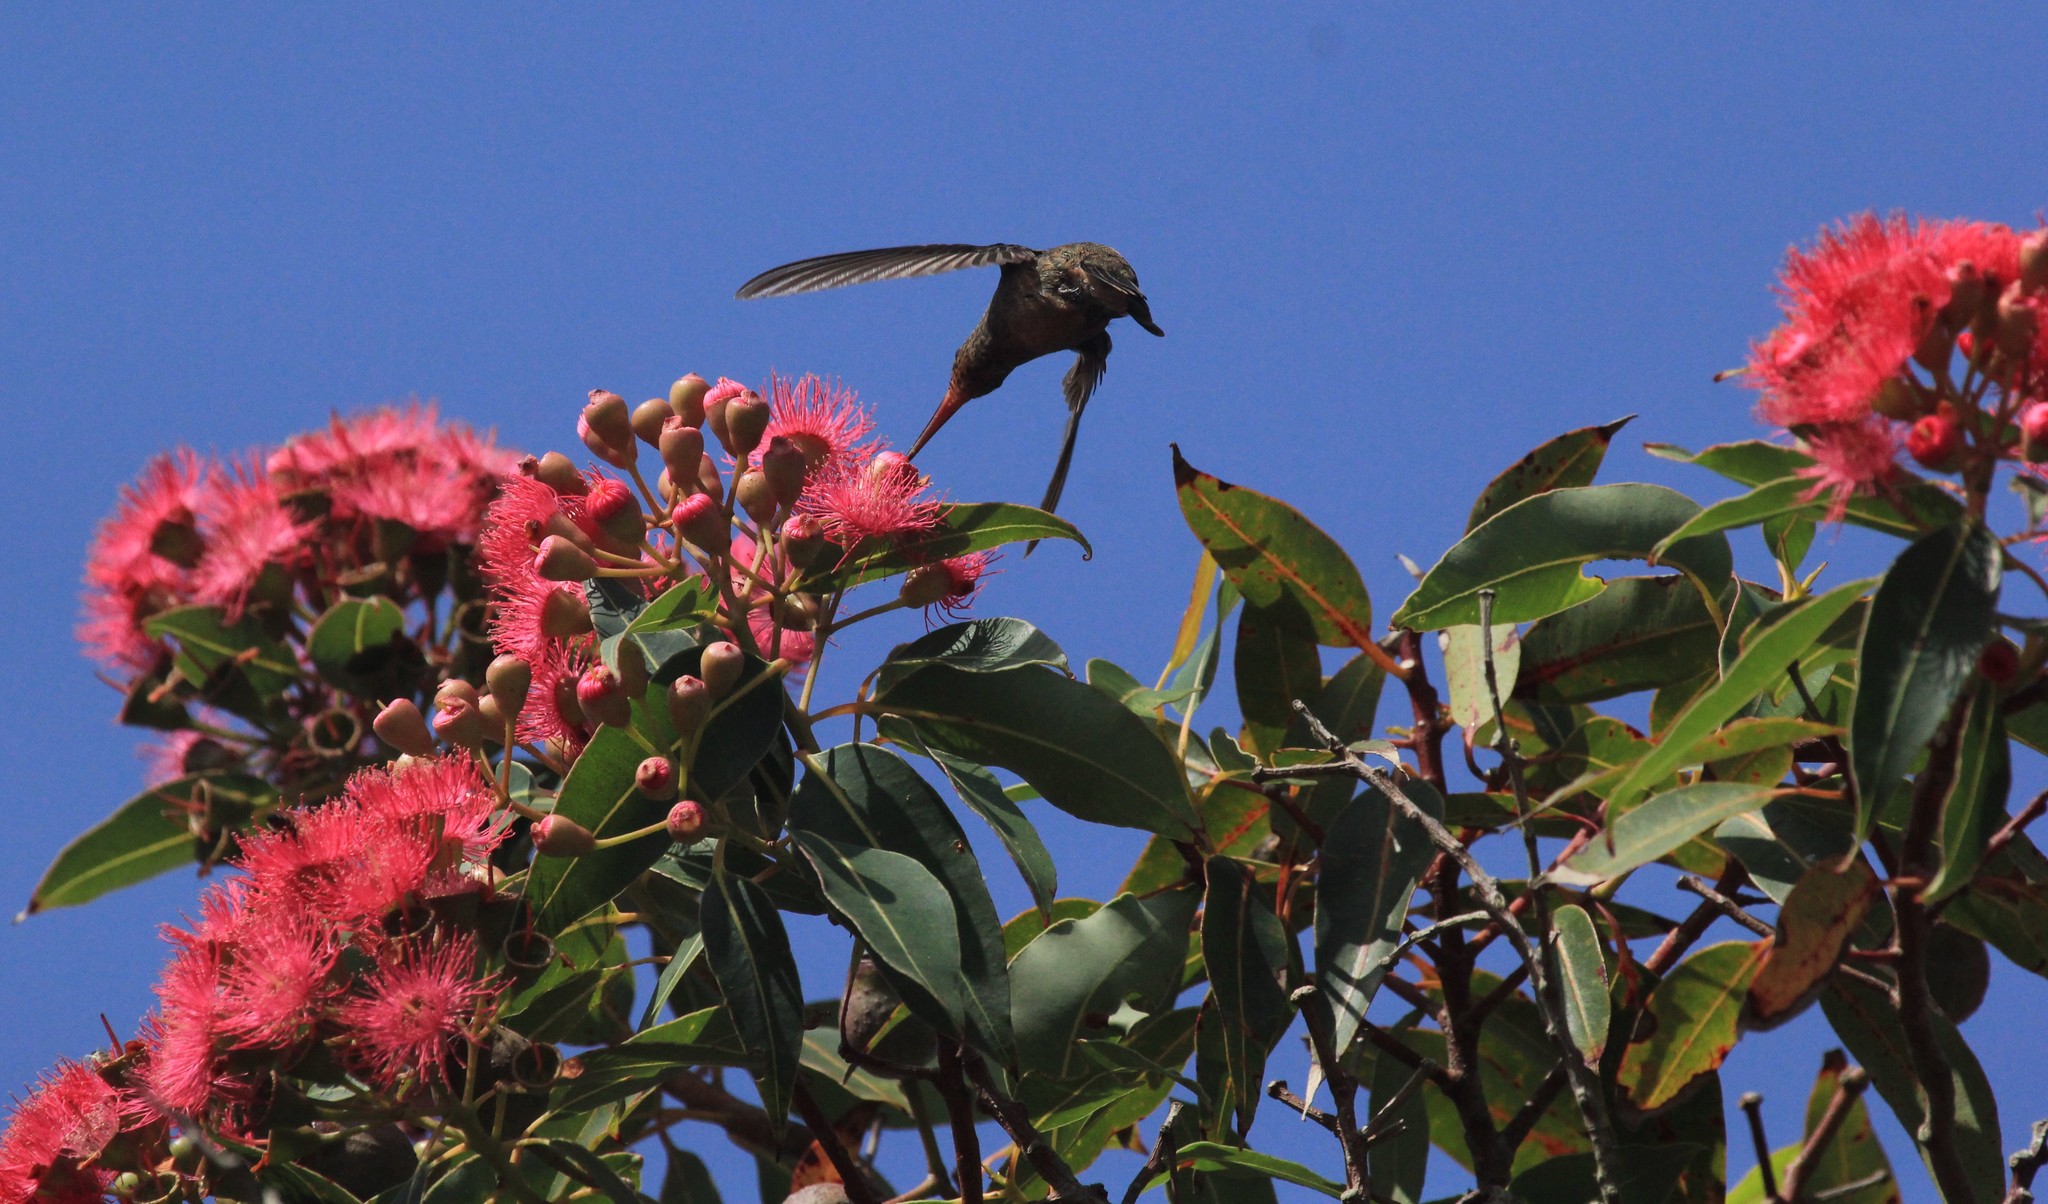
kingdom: Animalia
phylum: Chordata
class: Aves
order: Apodiformes
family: Trochilidae
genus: Hylocharis
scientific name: Hylocharis chrysura
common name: Gilded sapphire
